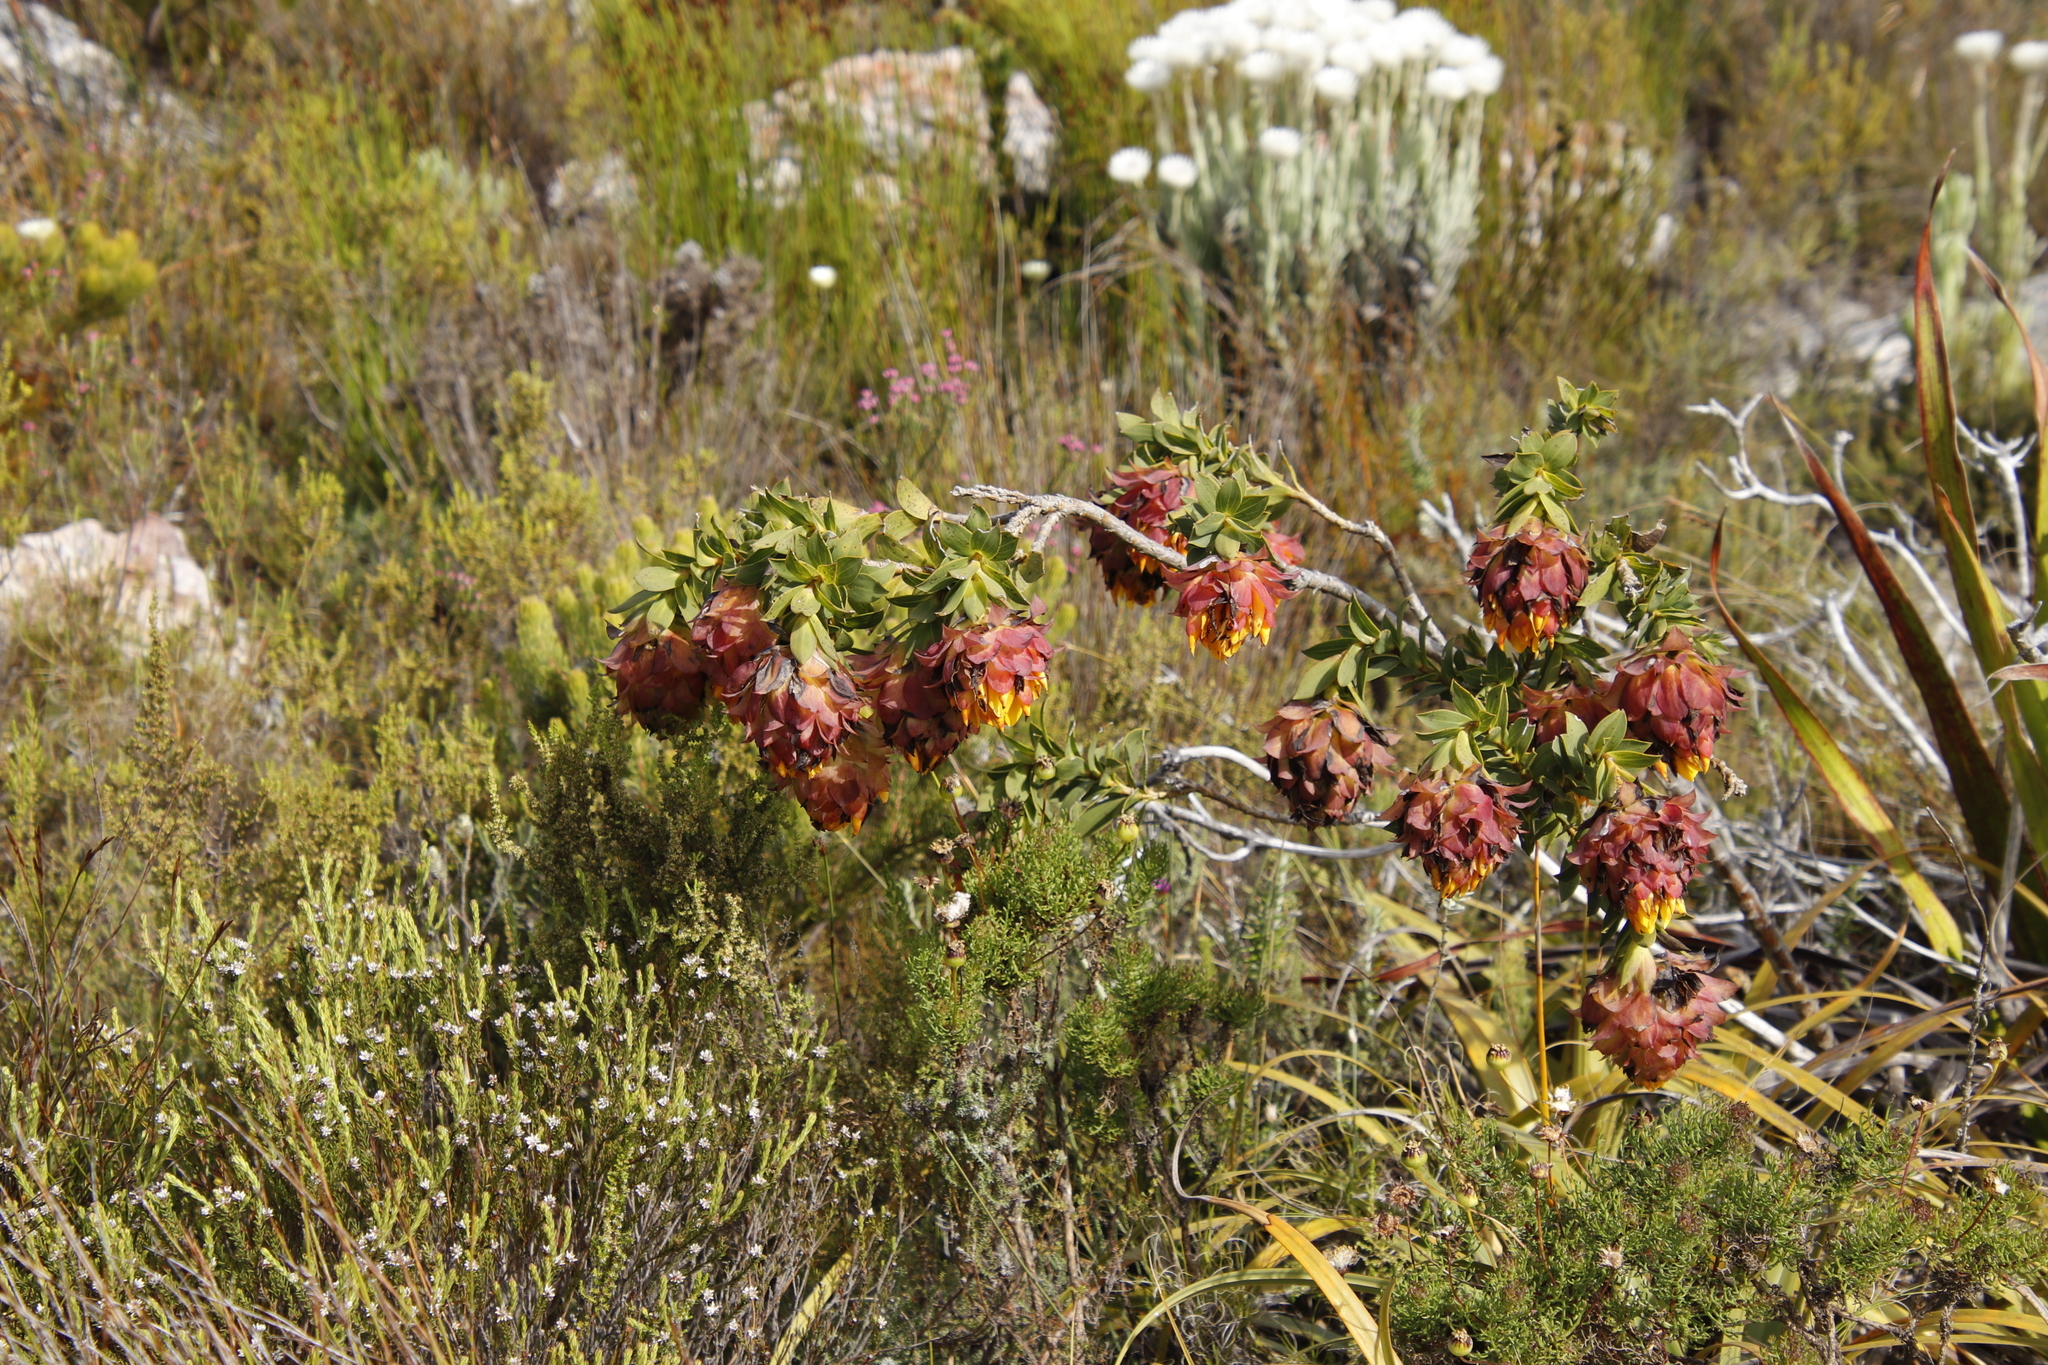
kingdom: Plantae
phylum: Tracheophyta
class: Magnoliopsida
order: Fabales
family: Fabaceae
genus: Liparia
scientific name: Liparia splendens
